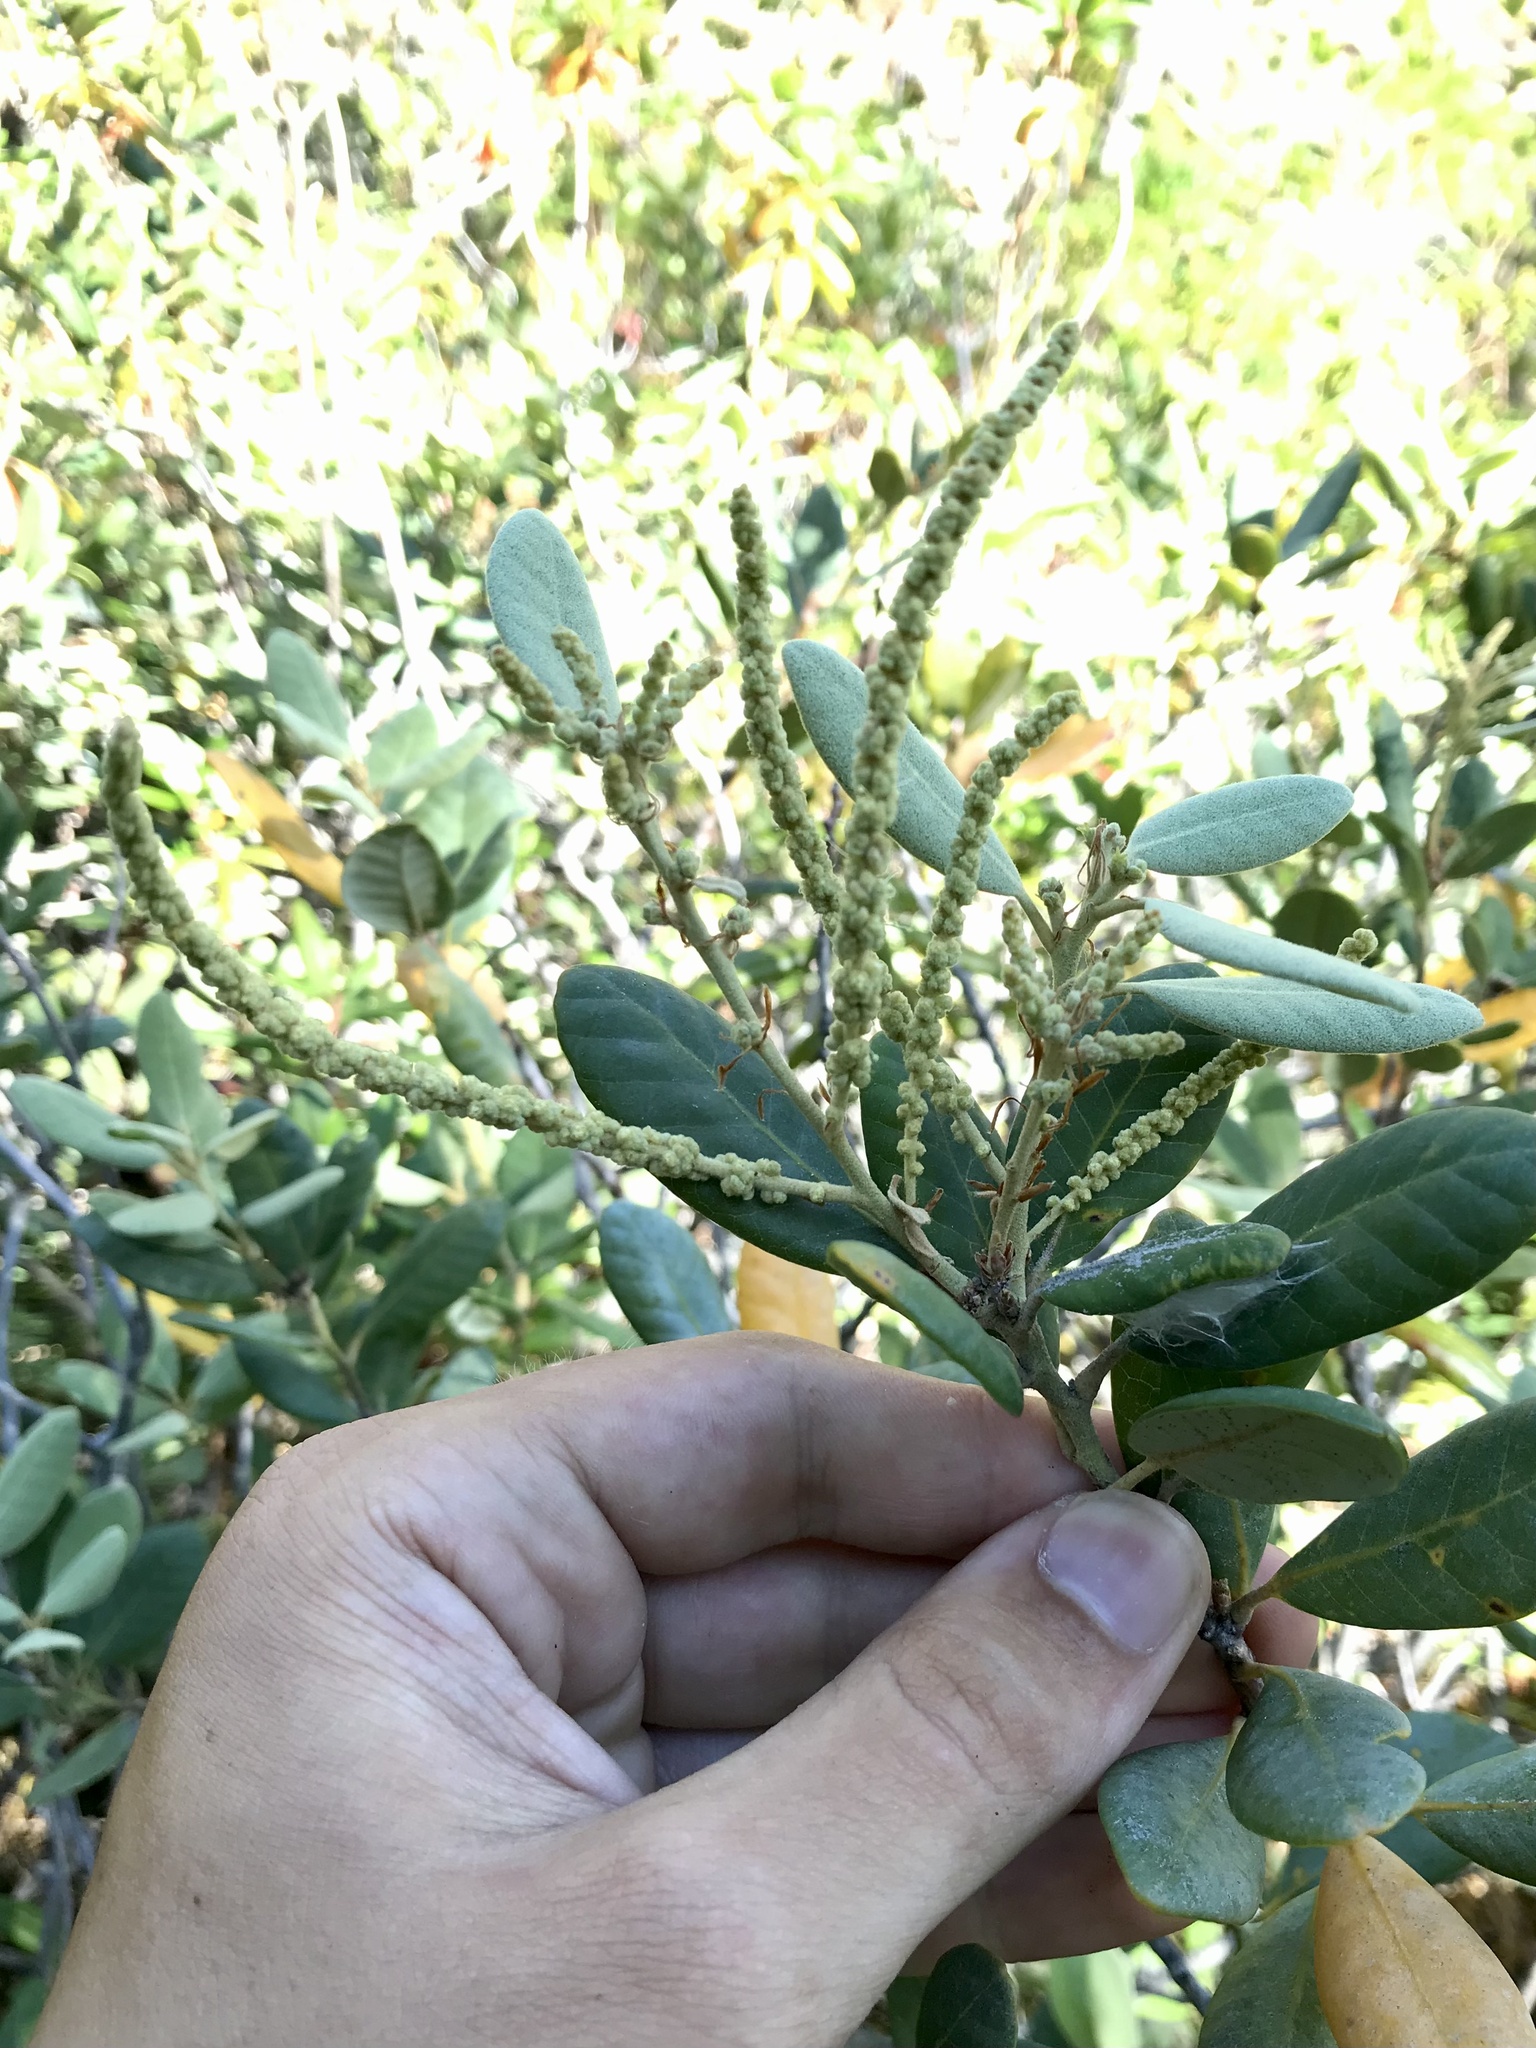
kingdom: Plantae
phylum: Tracheophyta
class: Magnoliopsida
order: Fagales
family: Fagaceae
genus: Notholithocarpus
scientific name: Notholithocarpus densiflorus
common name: Tan bark oak
